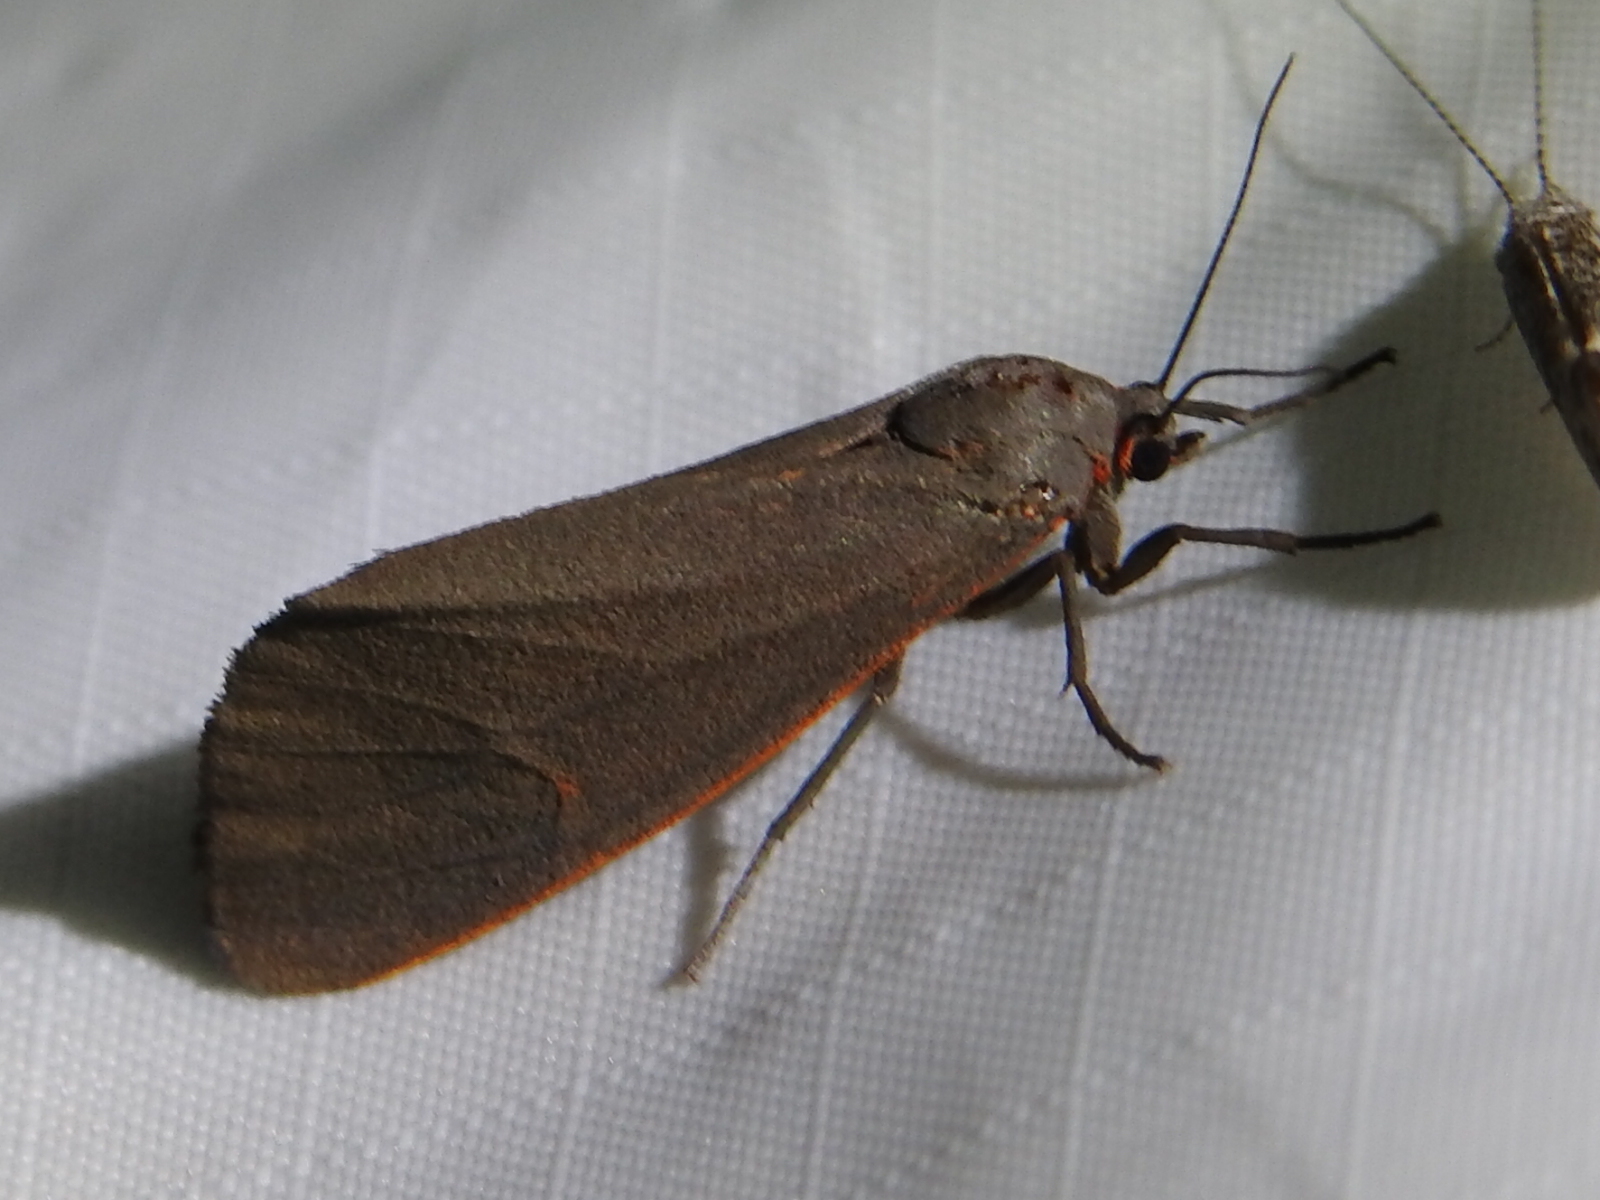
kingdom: Animalia
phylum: Arthropoda
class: Insecta
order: Lepidoptera
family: Erebidae
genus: Virbia
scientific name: Virbia laeta
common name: Joyful holomelina moth
